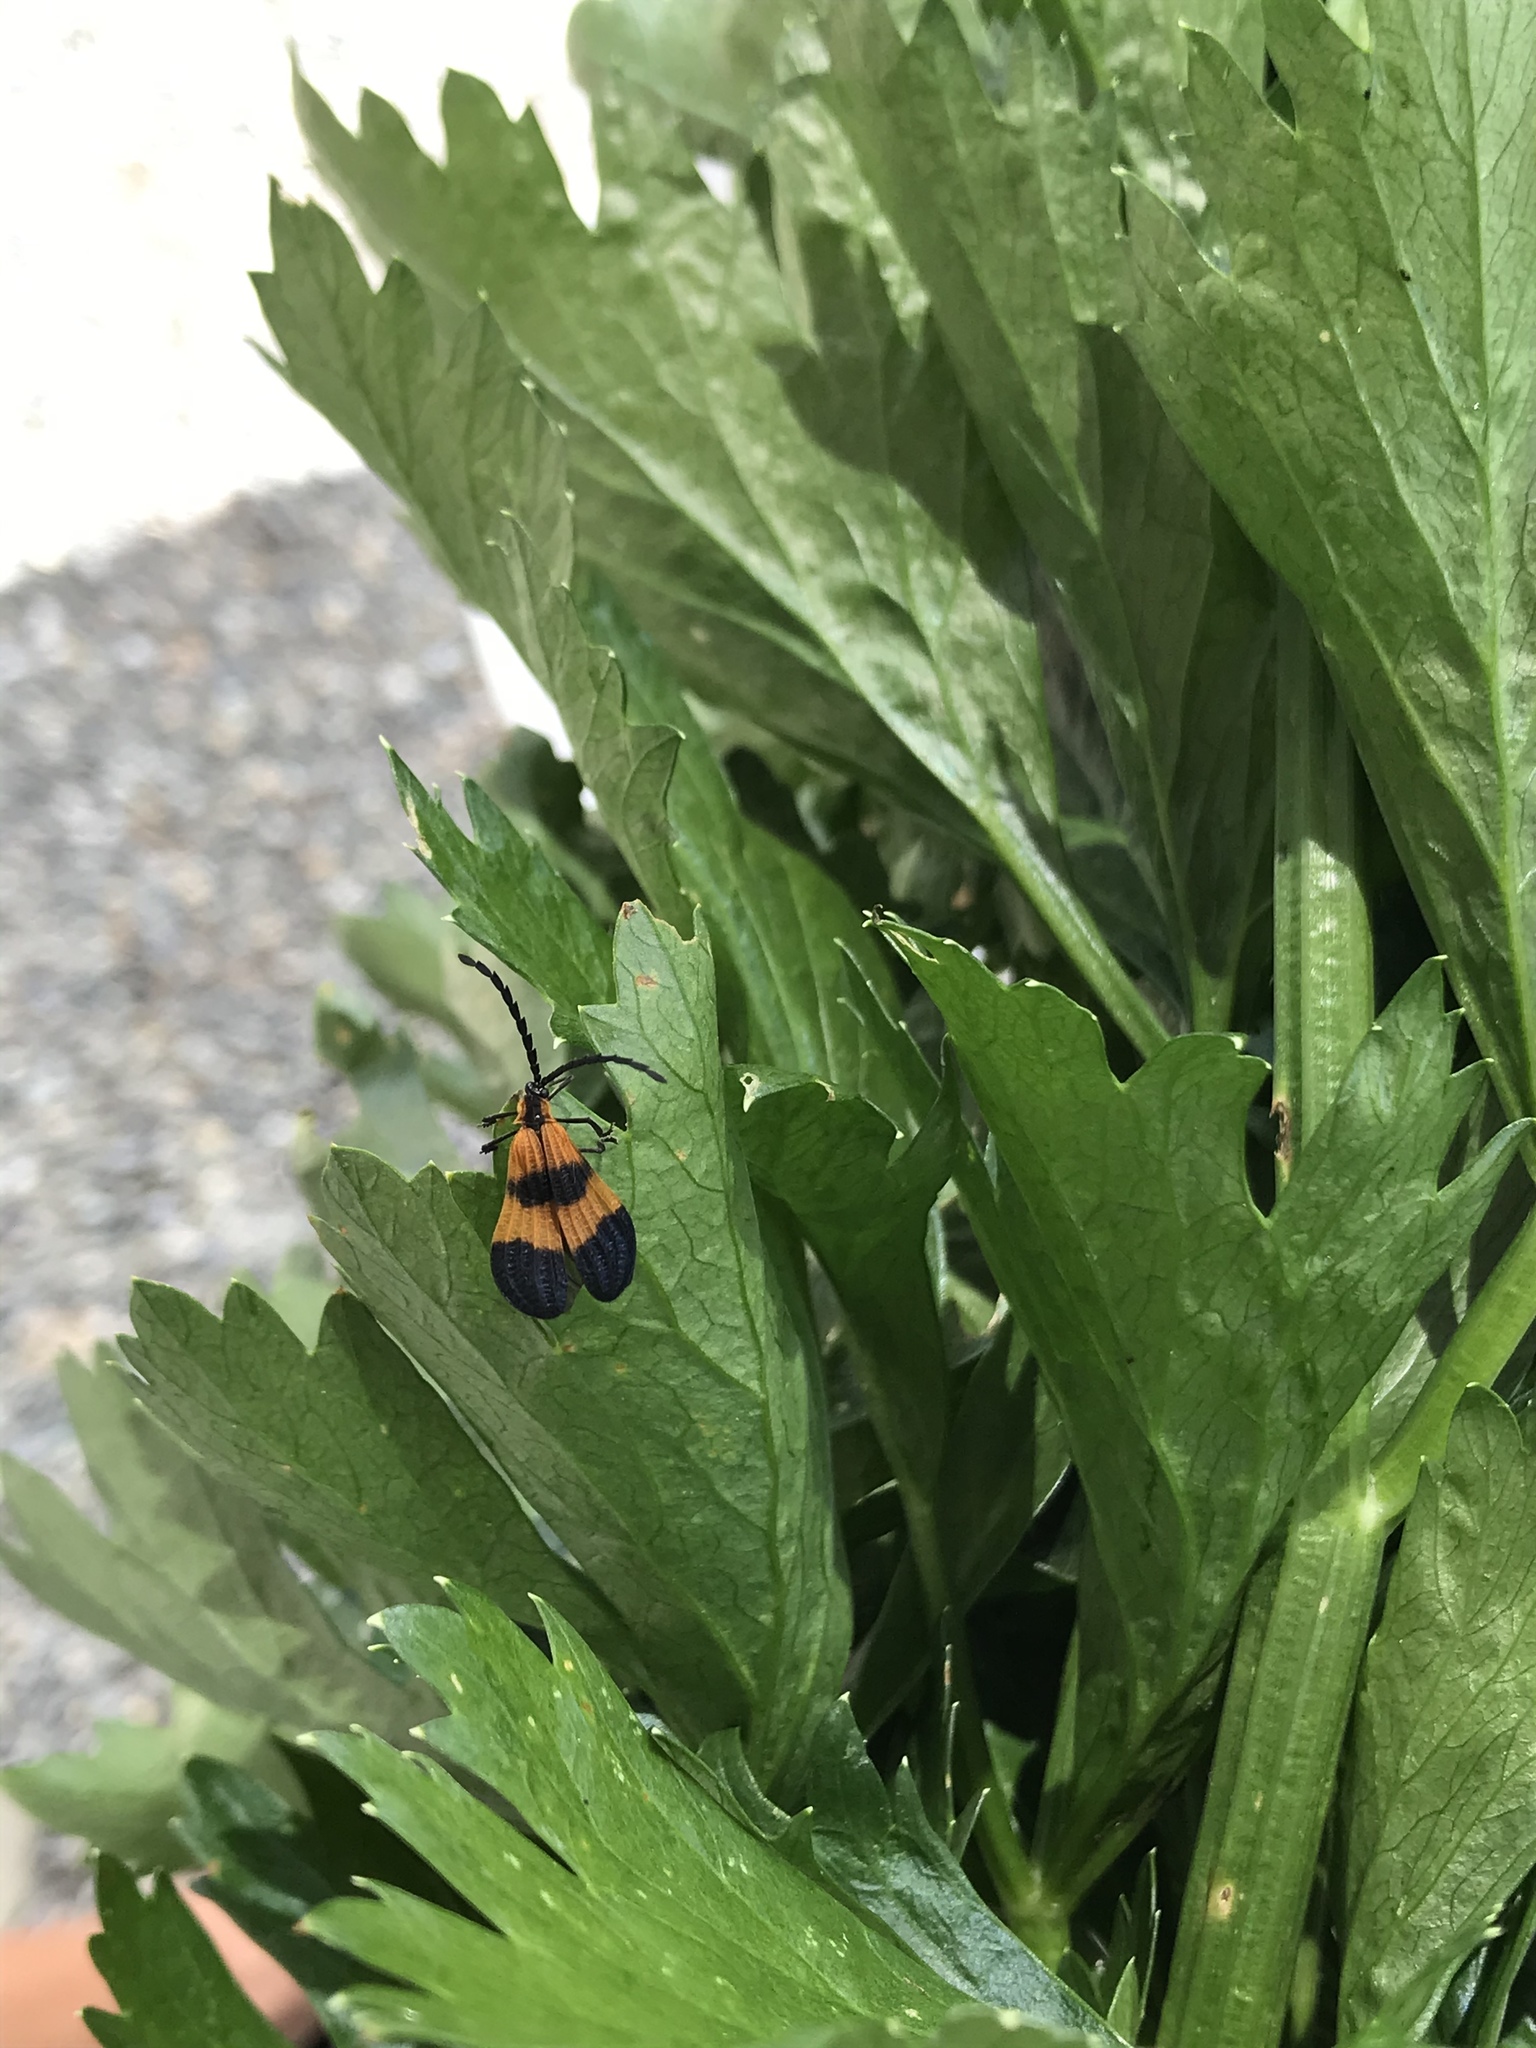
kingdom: Animalia
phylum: Arthropoda
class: Insecta
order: Coleoptera
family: Lycidae
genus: Calopteron
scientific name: Calopteron terminale
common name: End band net-winged beetle
